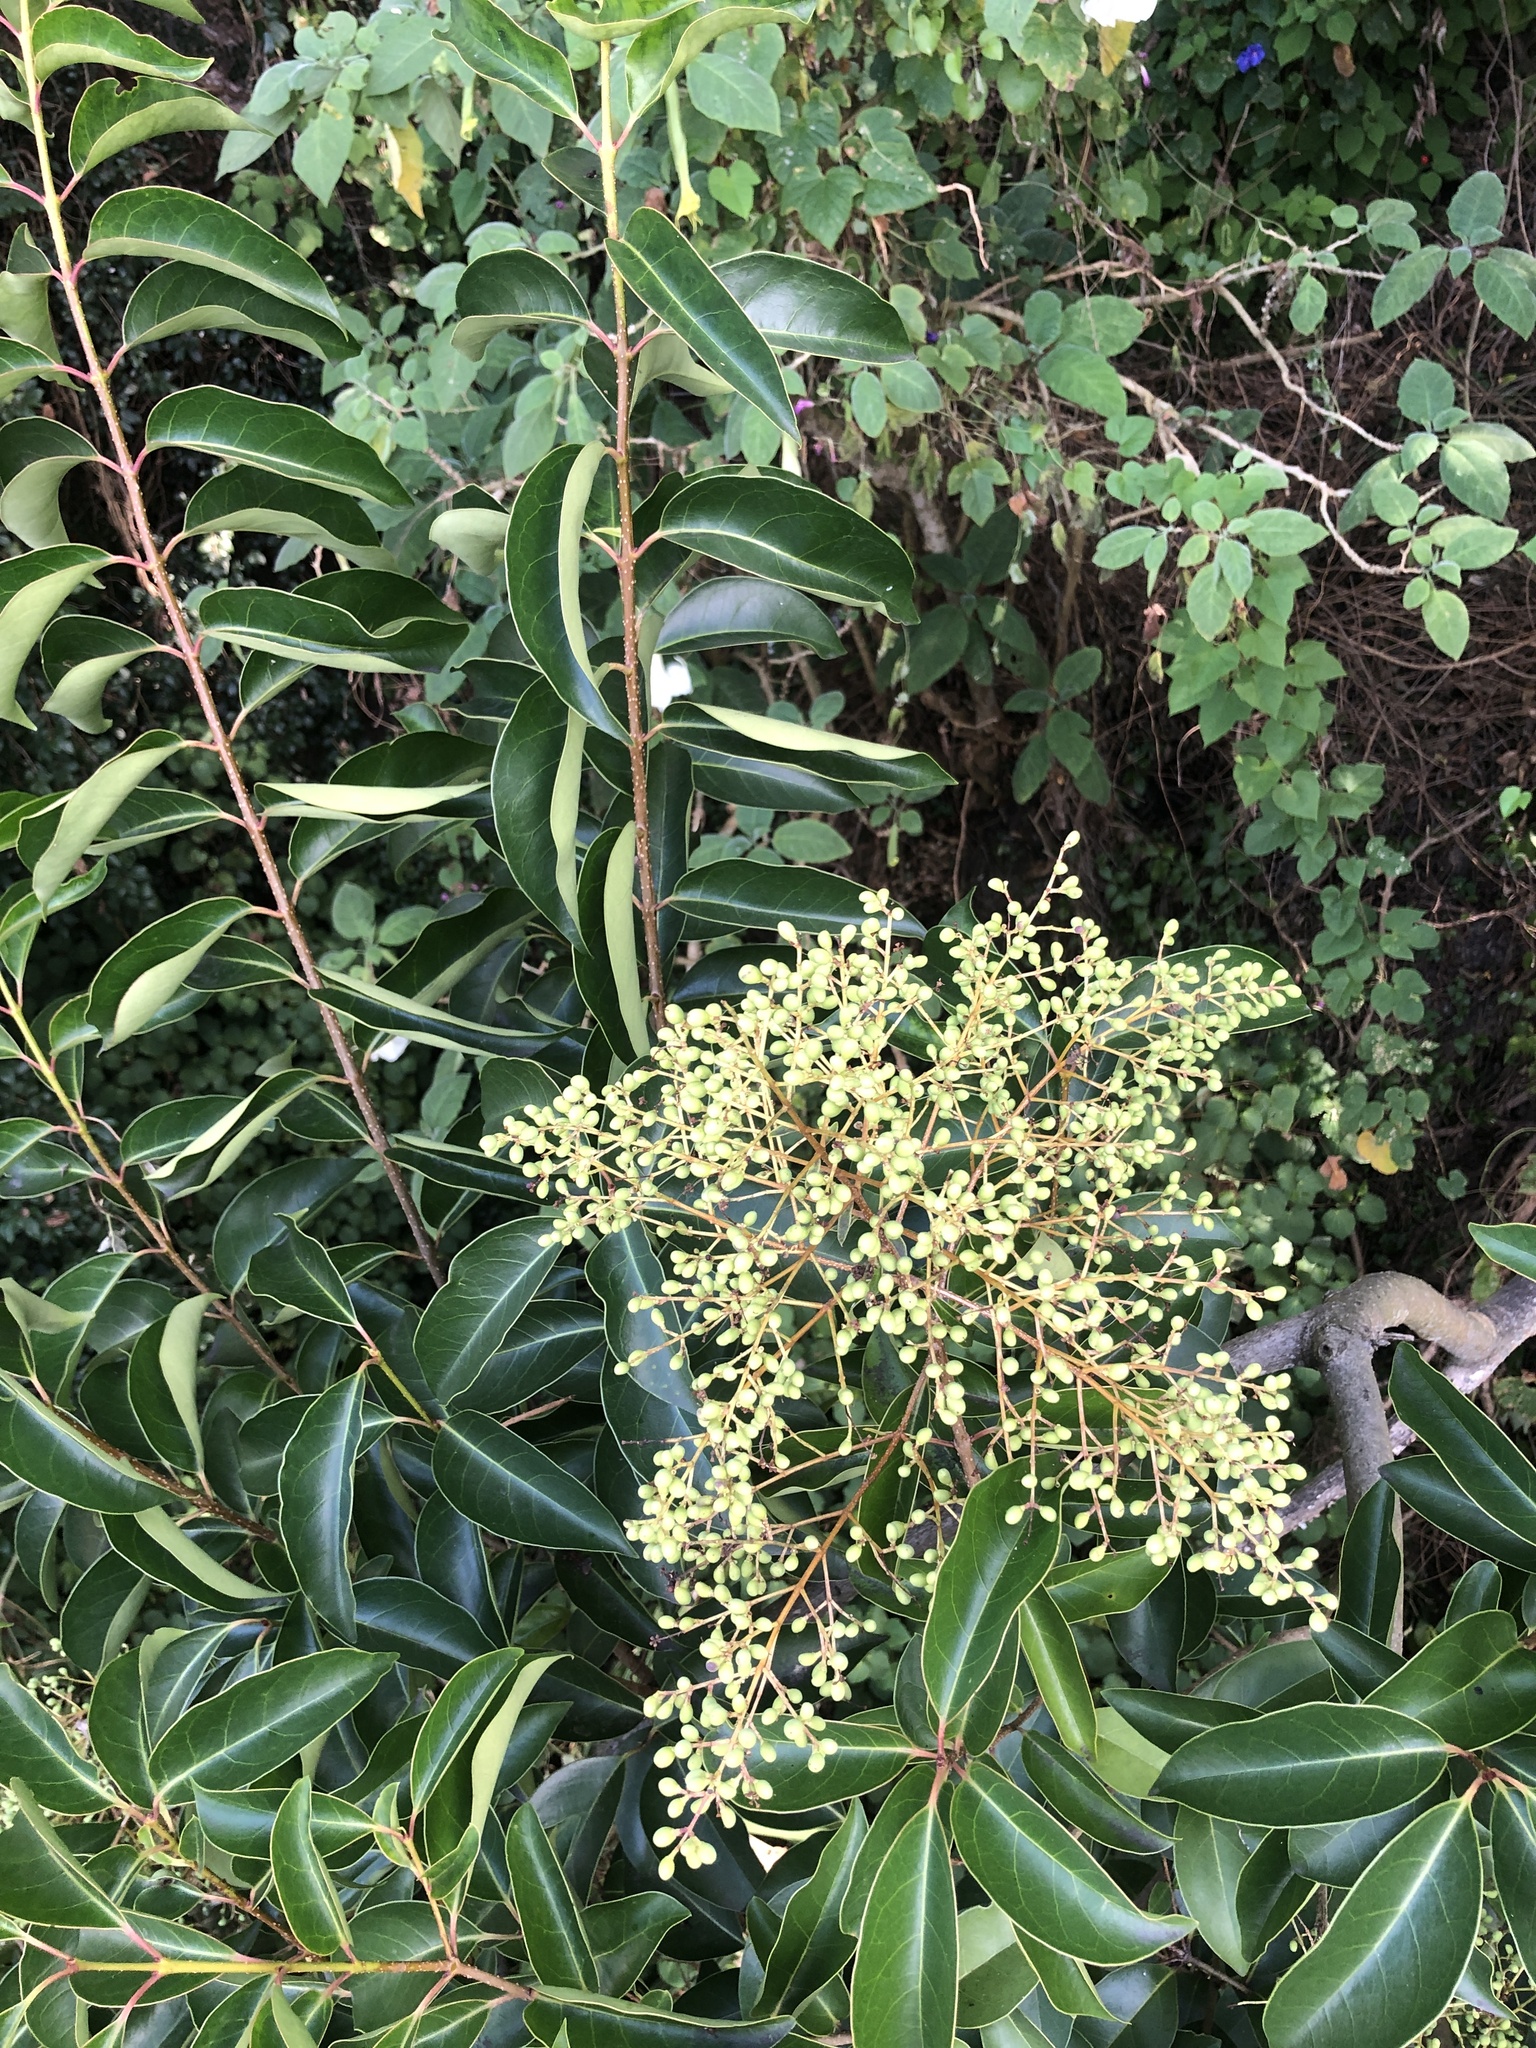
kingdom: Plantae
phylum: Tracheophyta
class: Magnoliopsida
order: Lamiales
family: Oleaceae
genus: Ligustrum
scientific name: Ligustrum lucidum
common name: Glossy privet
